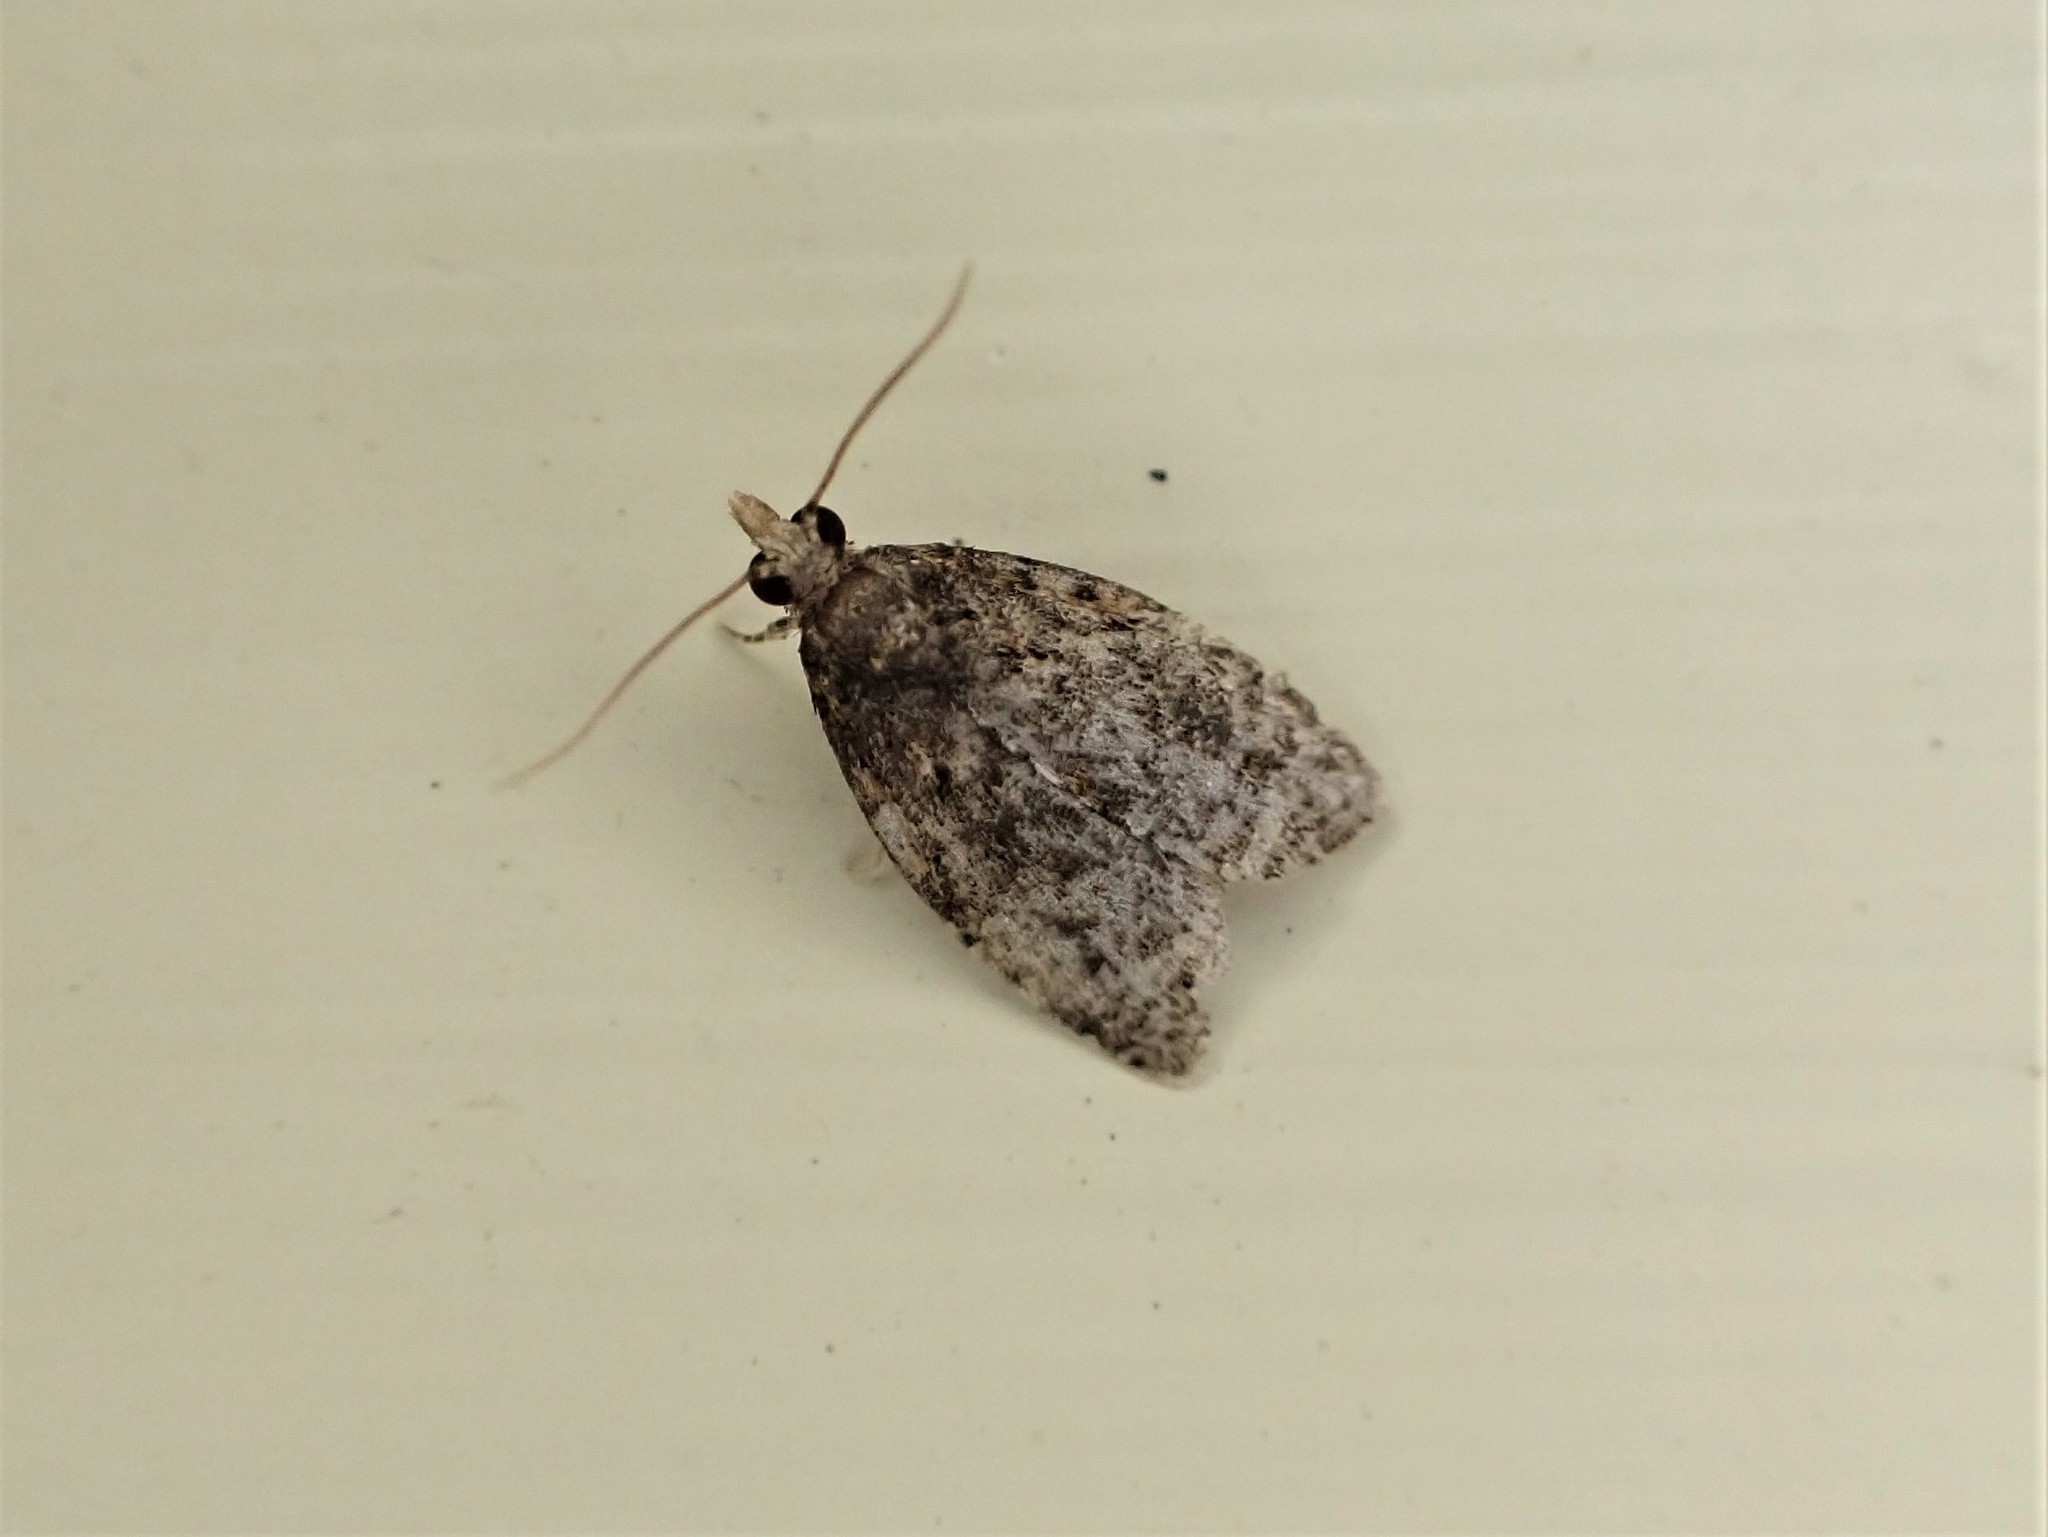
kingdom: Animalia
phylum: Arthropoda
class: Insecta
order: Lepidoptera
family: Tortricidae
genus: Capua
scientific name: Capua intractana
